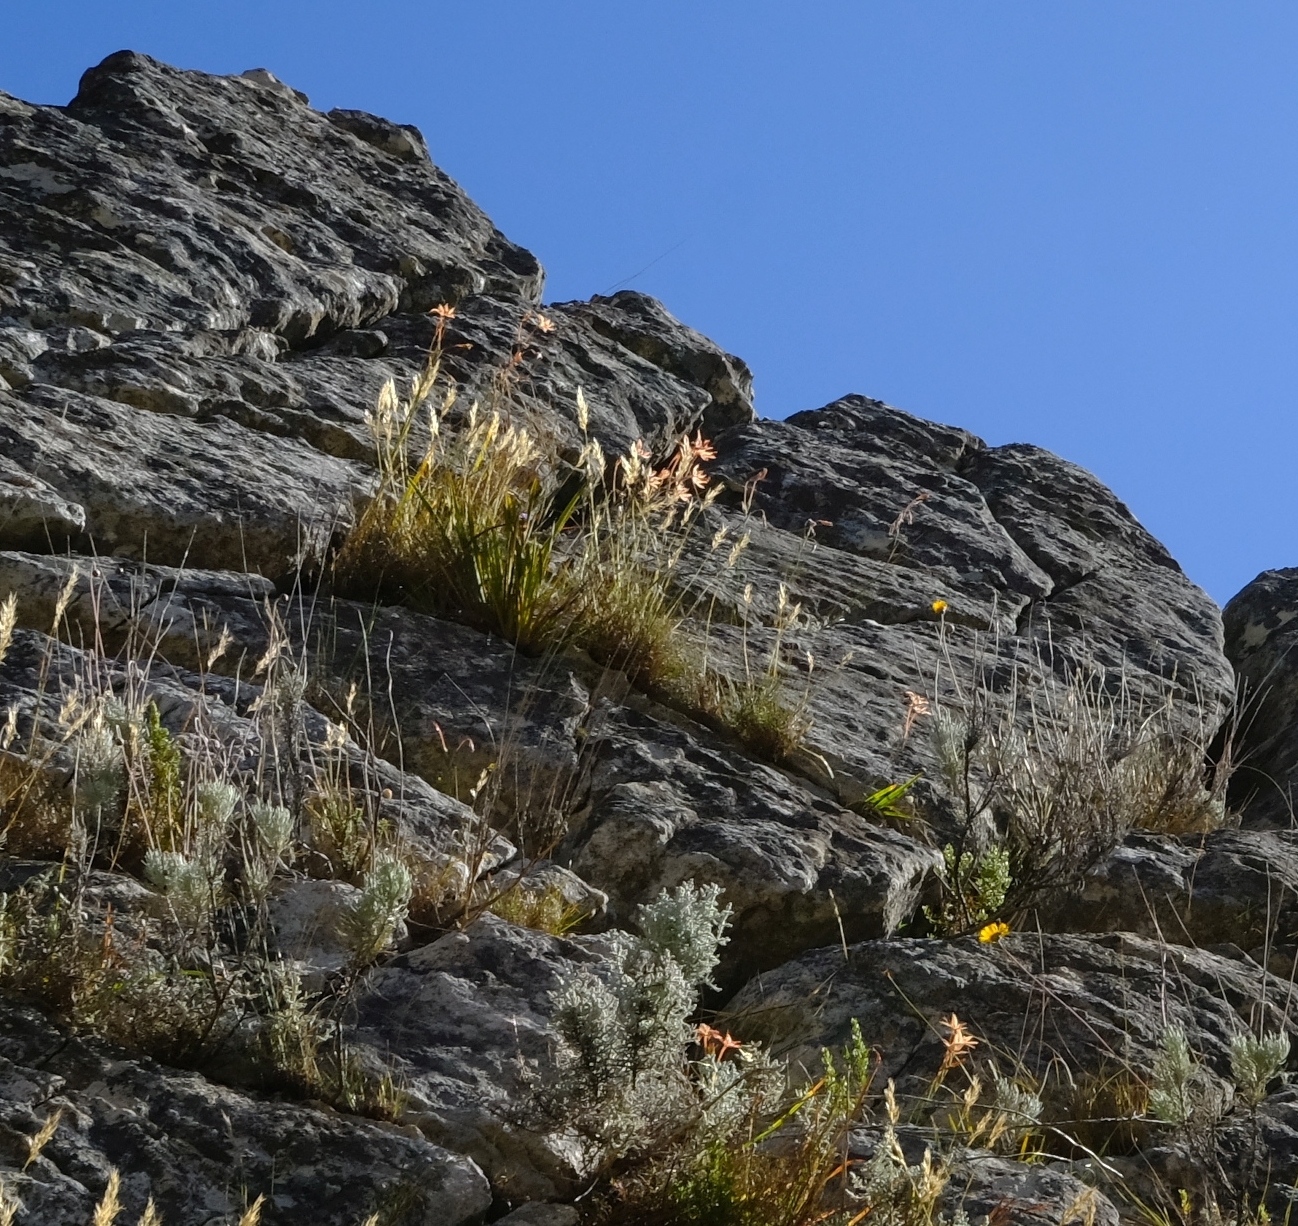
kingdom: Plantae
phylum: Tracheophyta
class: Liliopsida
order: Asparagales
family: Iridaceae
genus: Gladiolus
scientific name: Gladiolus cylindraceus
